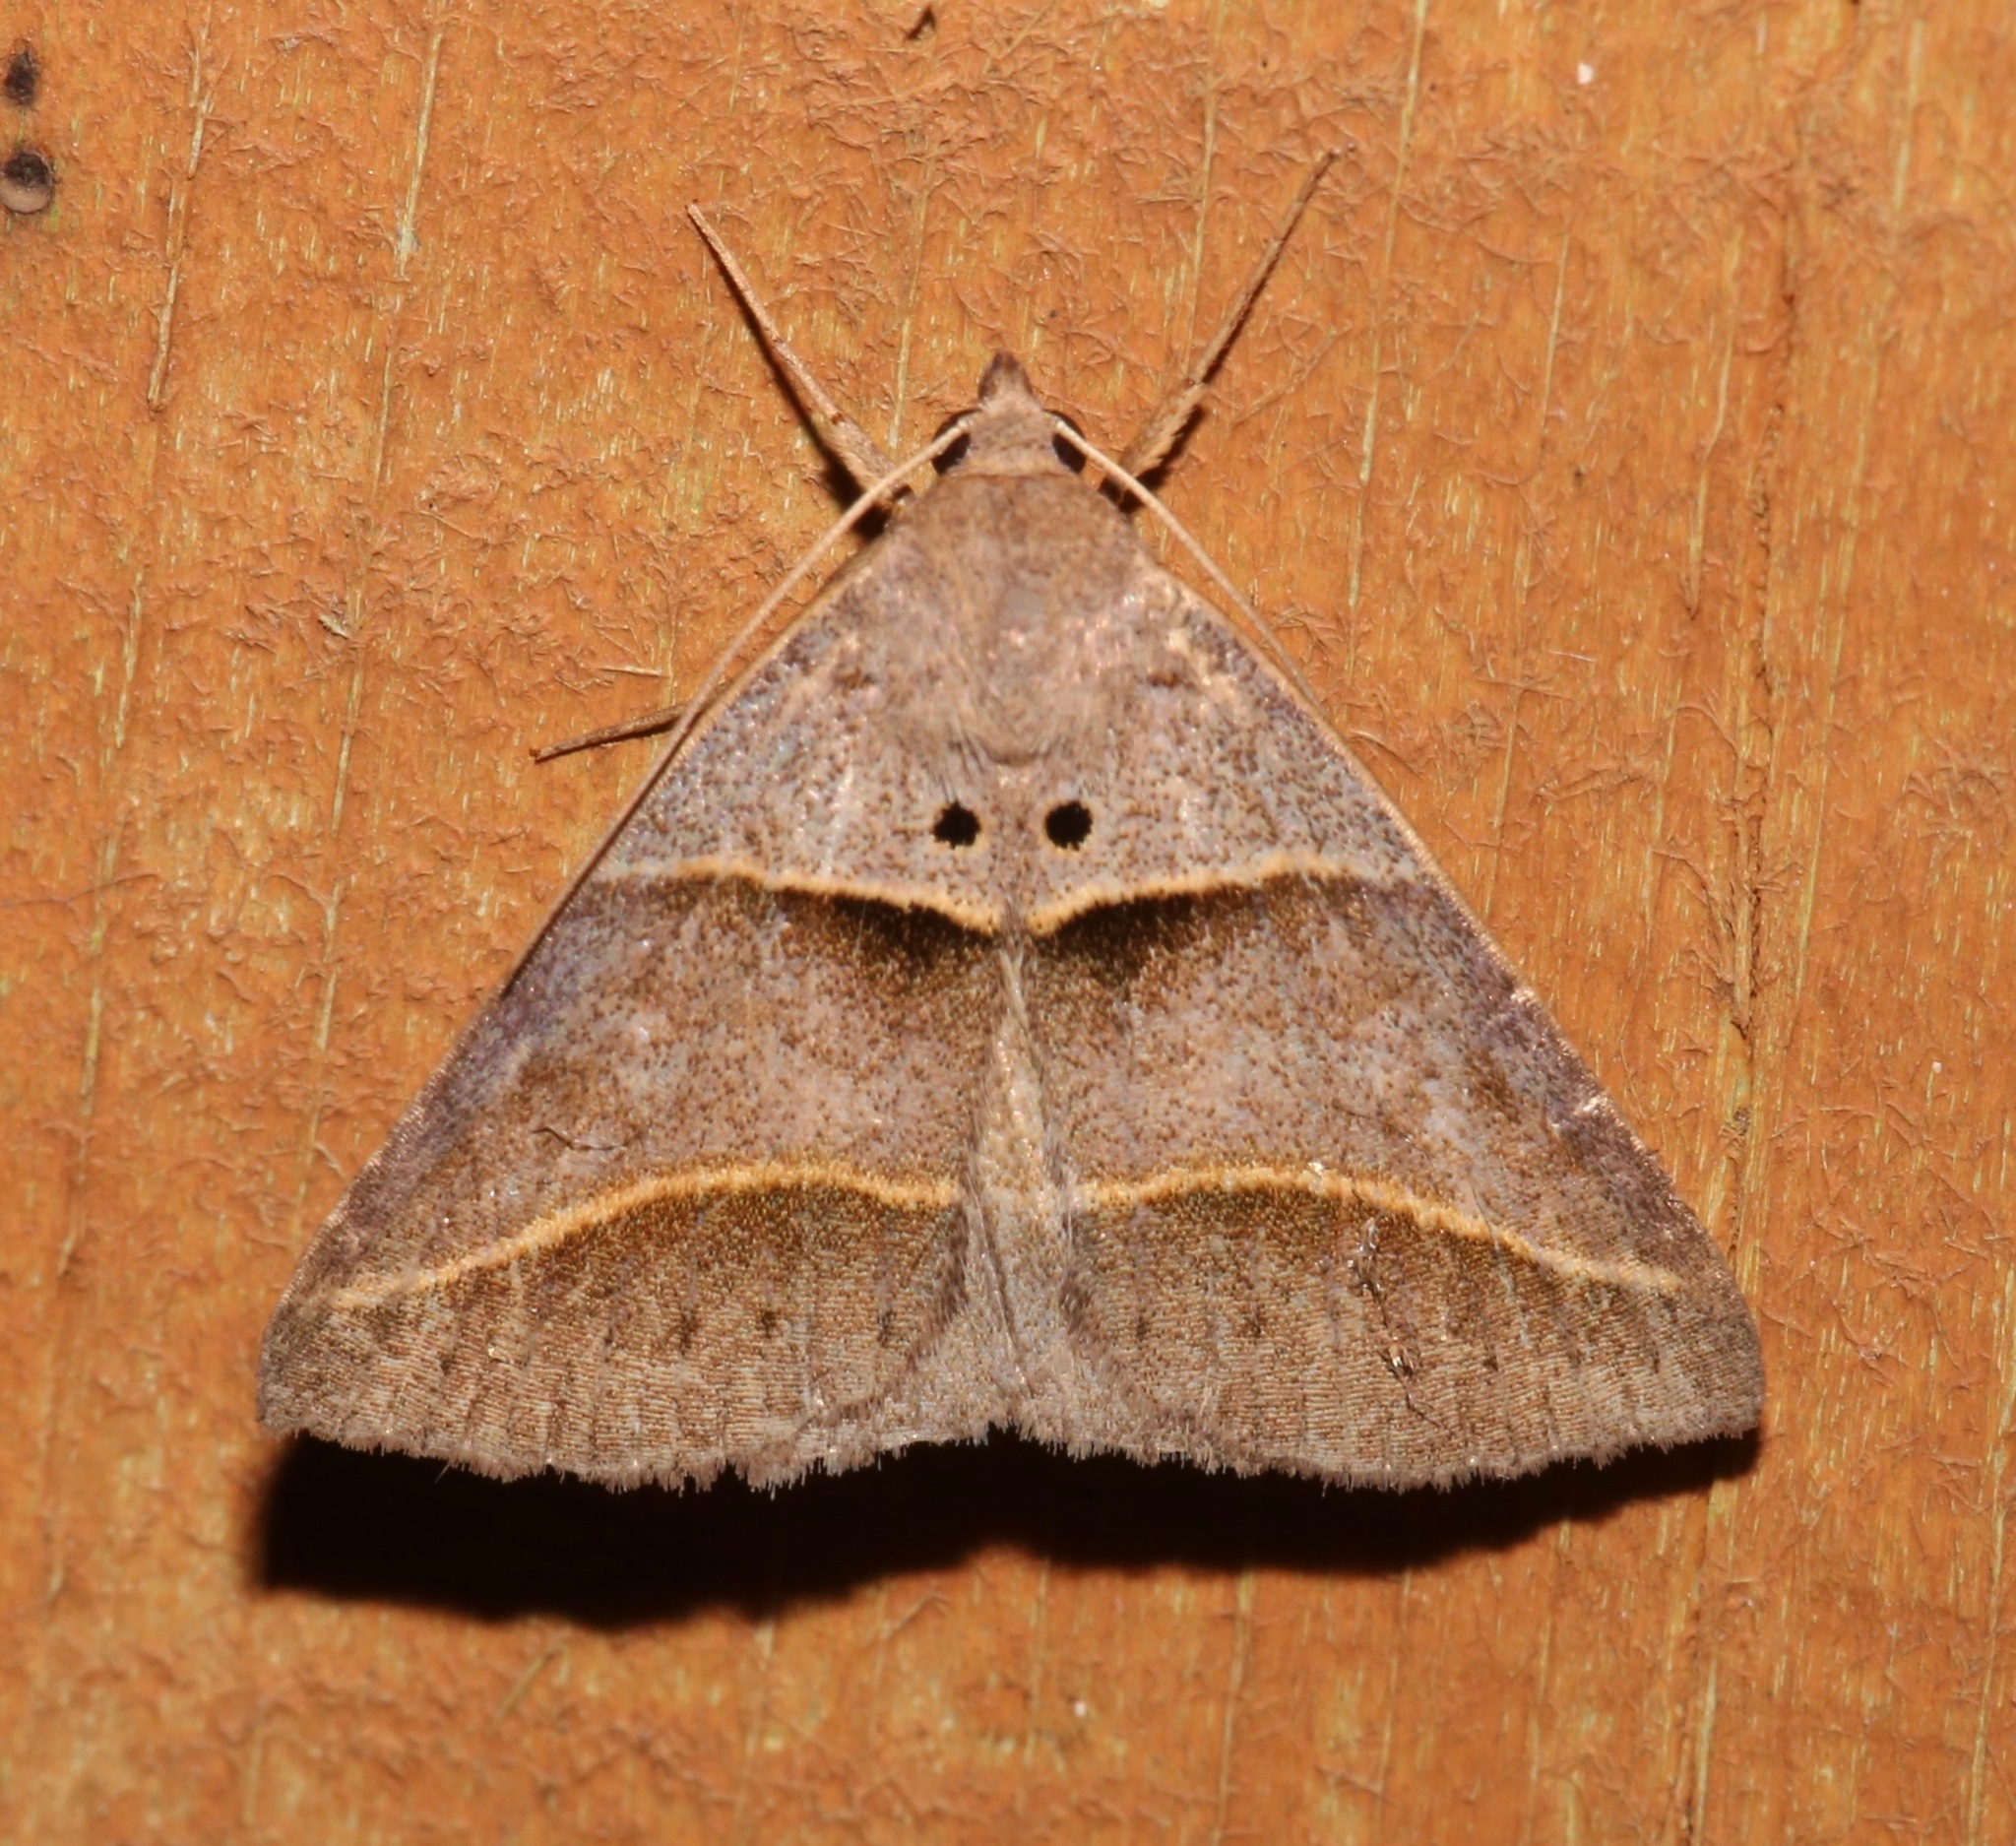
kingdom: Animalia
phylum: Arthropoda
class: Insecta
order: Lepidoptera
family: Erebidae
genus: Ptichodis
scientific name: Ptichodis herbarum
